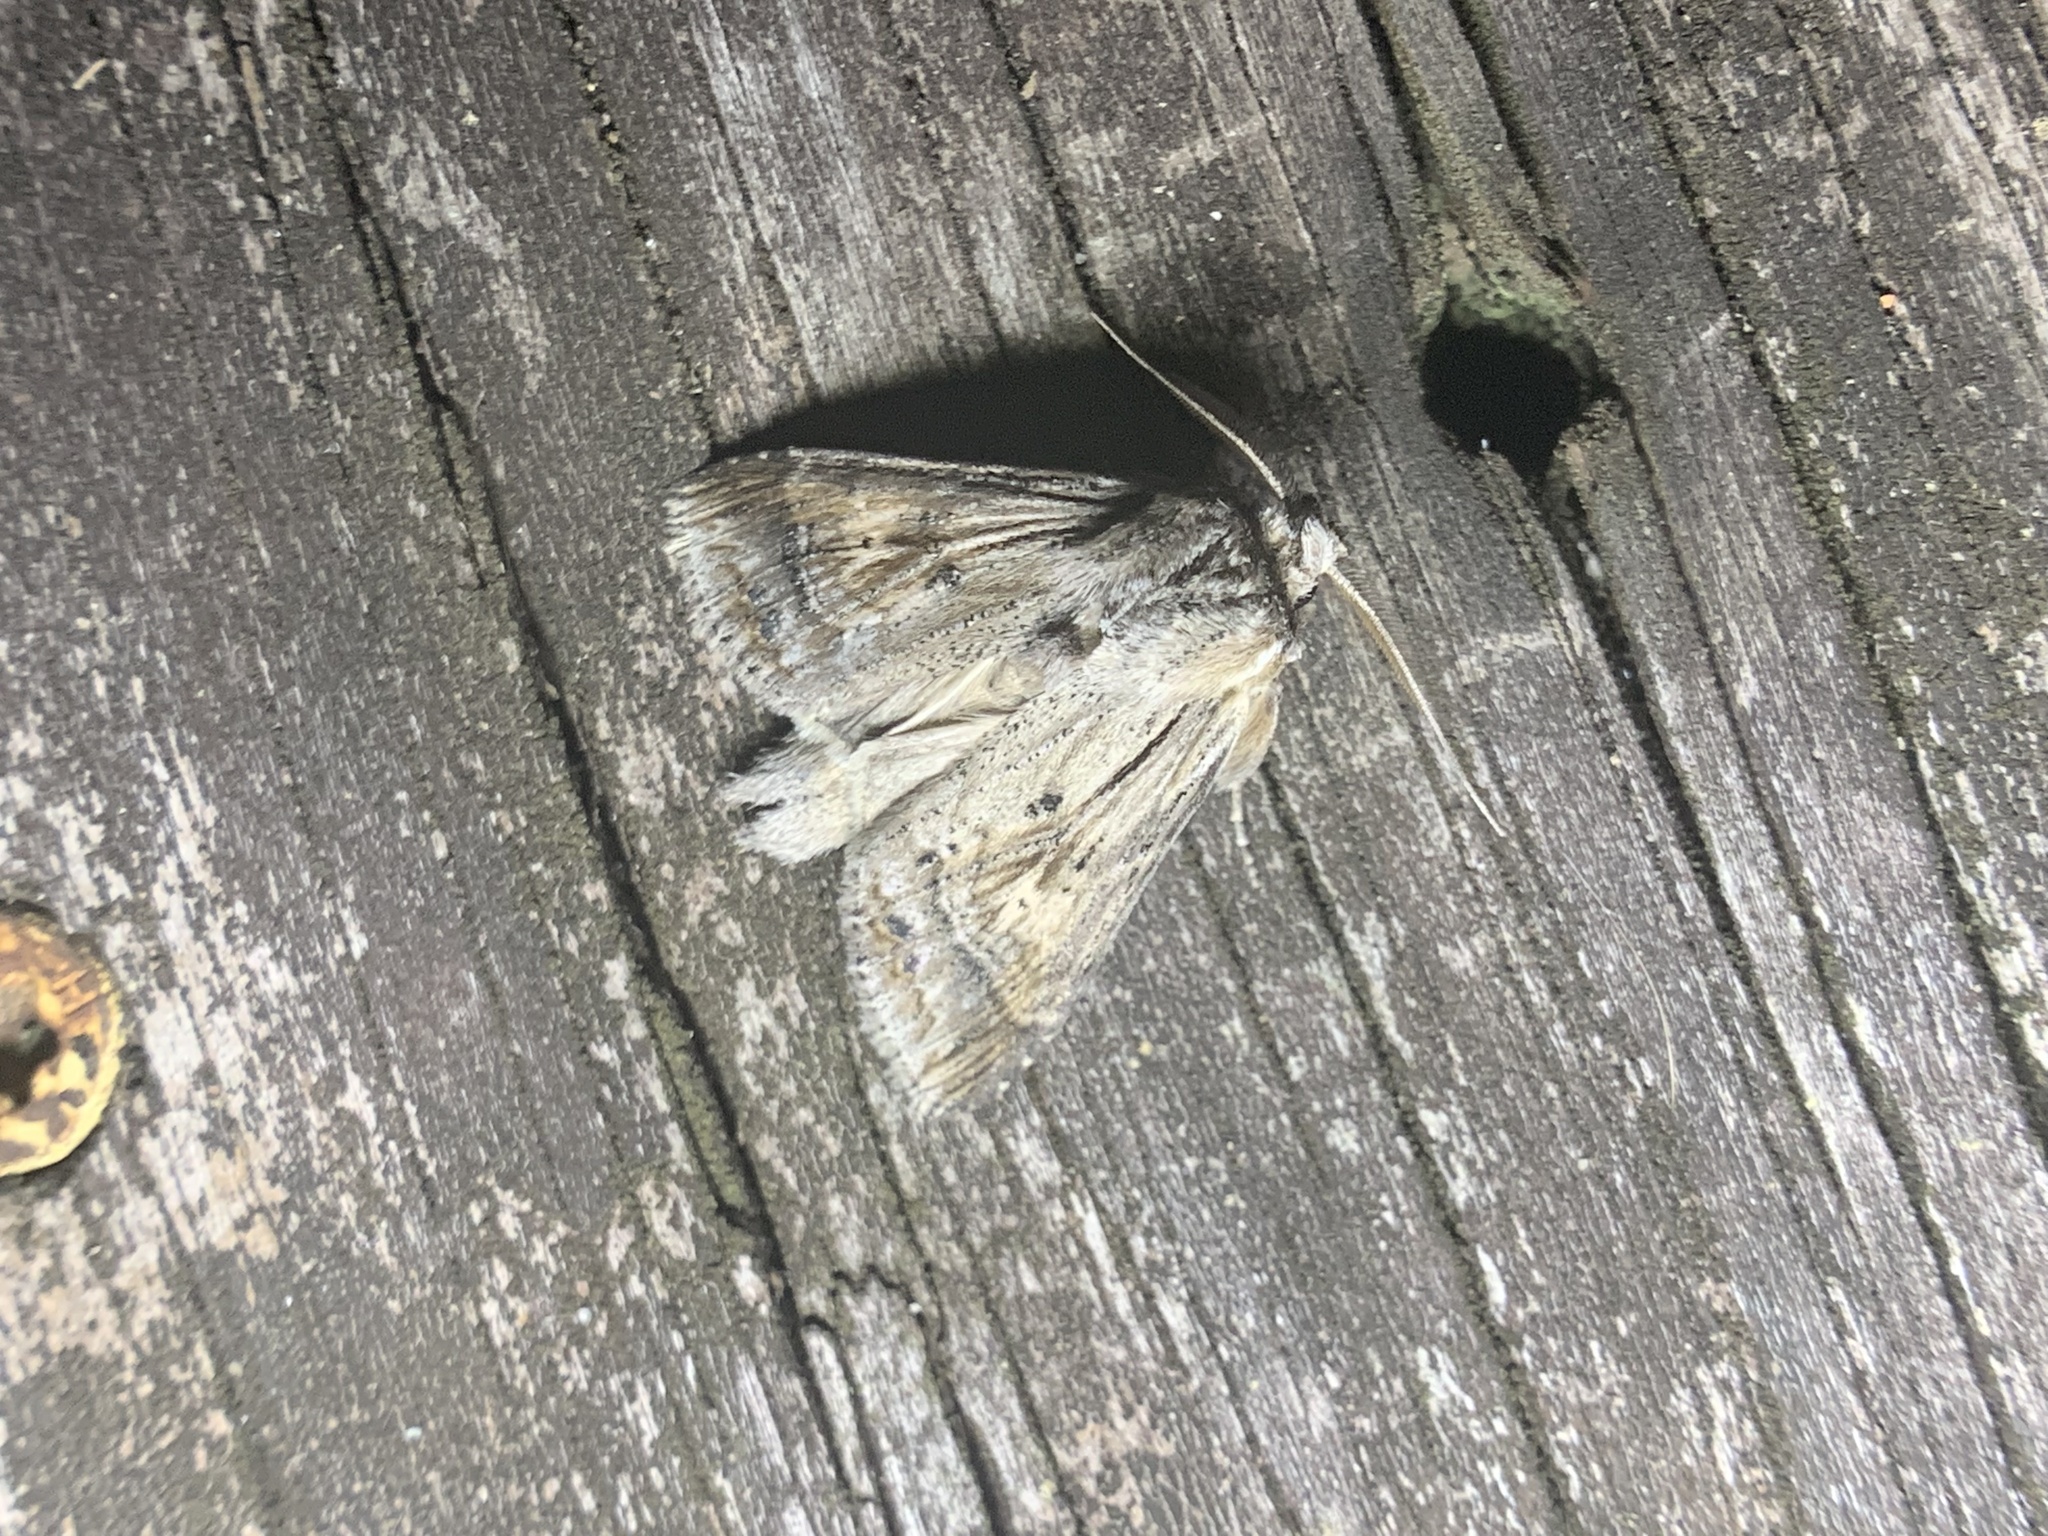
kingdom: Animalia
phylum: Arthropoda
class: Insecta
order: Lepidoptera
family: Notodontidae
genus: Dasylophia
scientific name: Dasylophia anguina
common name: Black-spotted prominent
